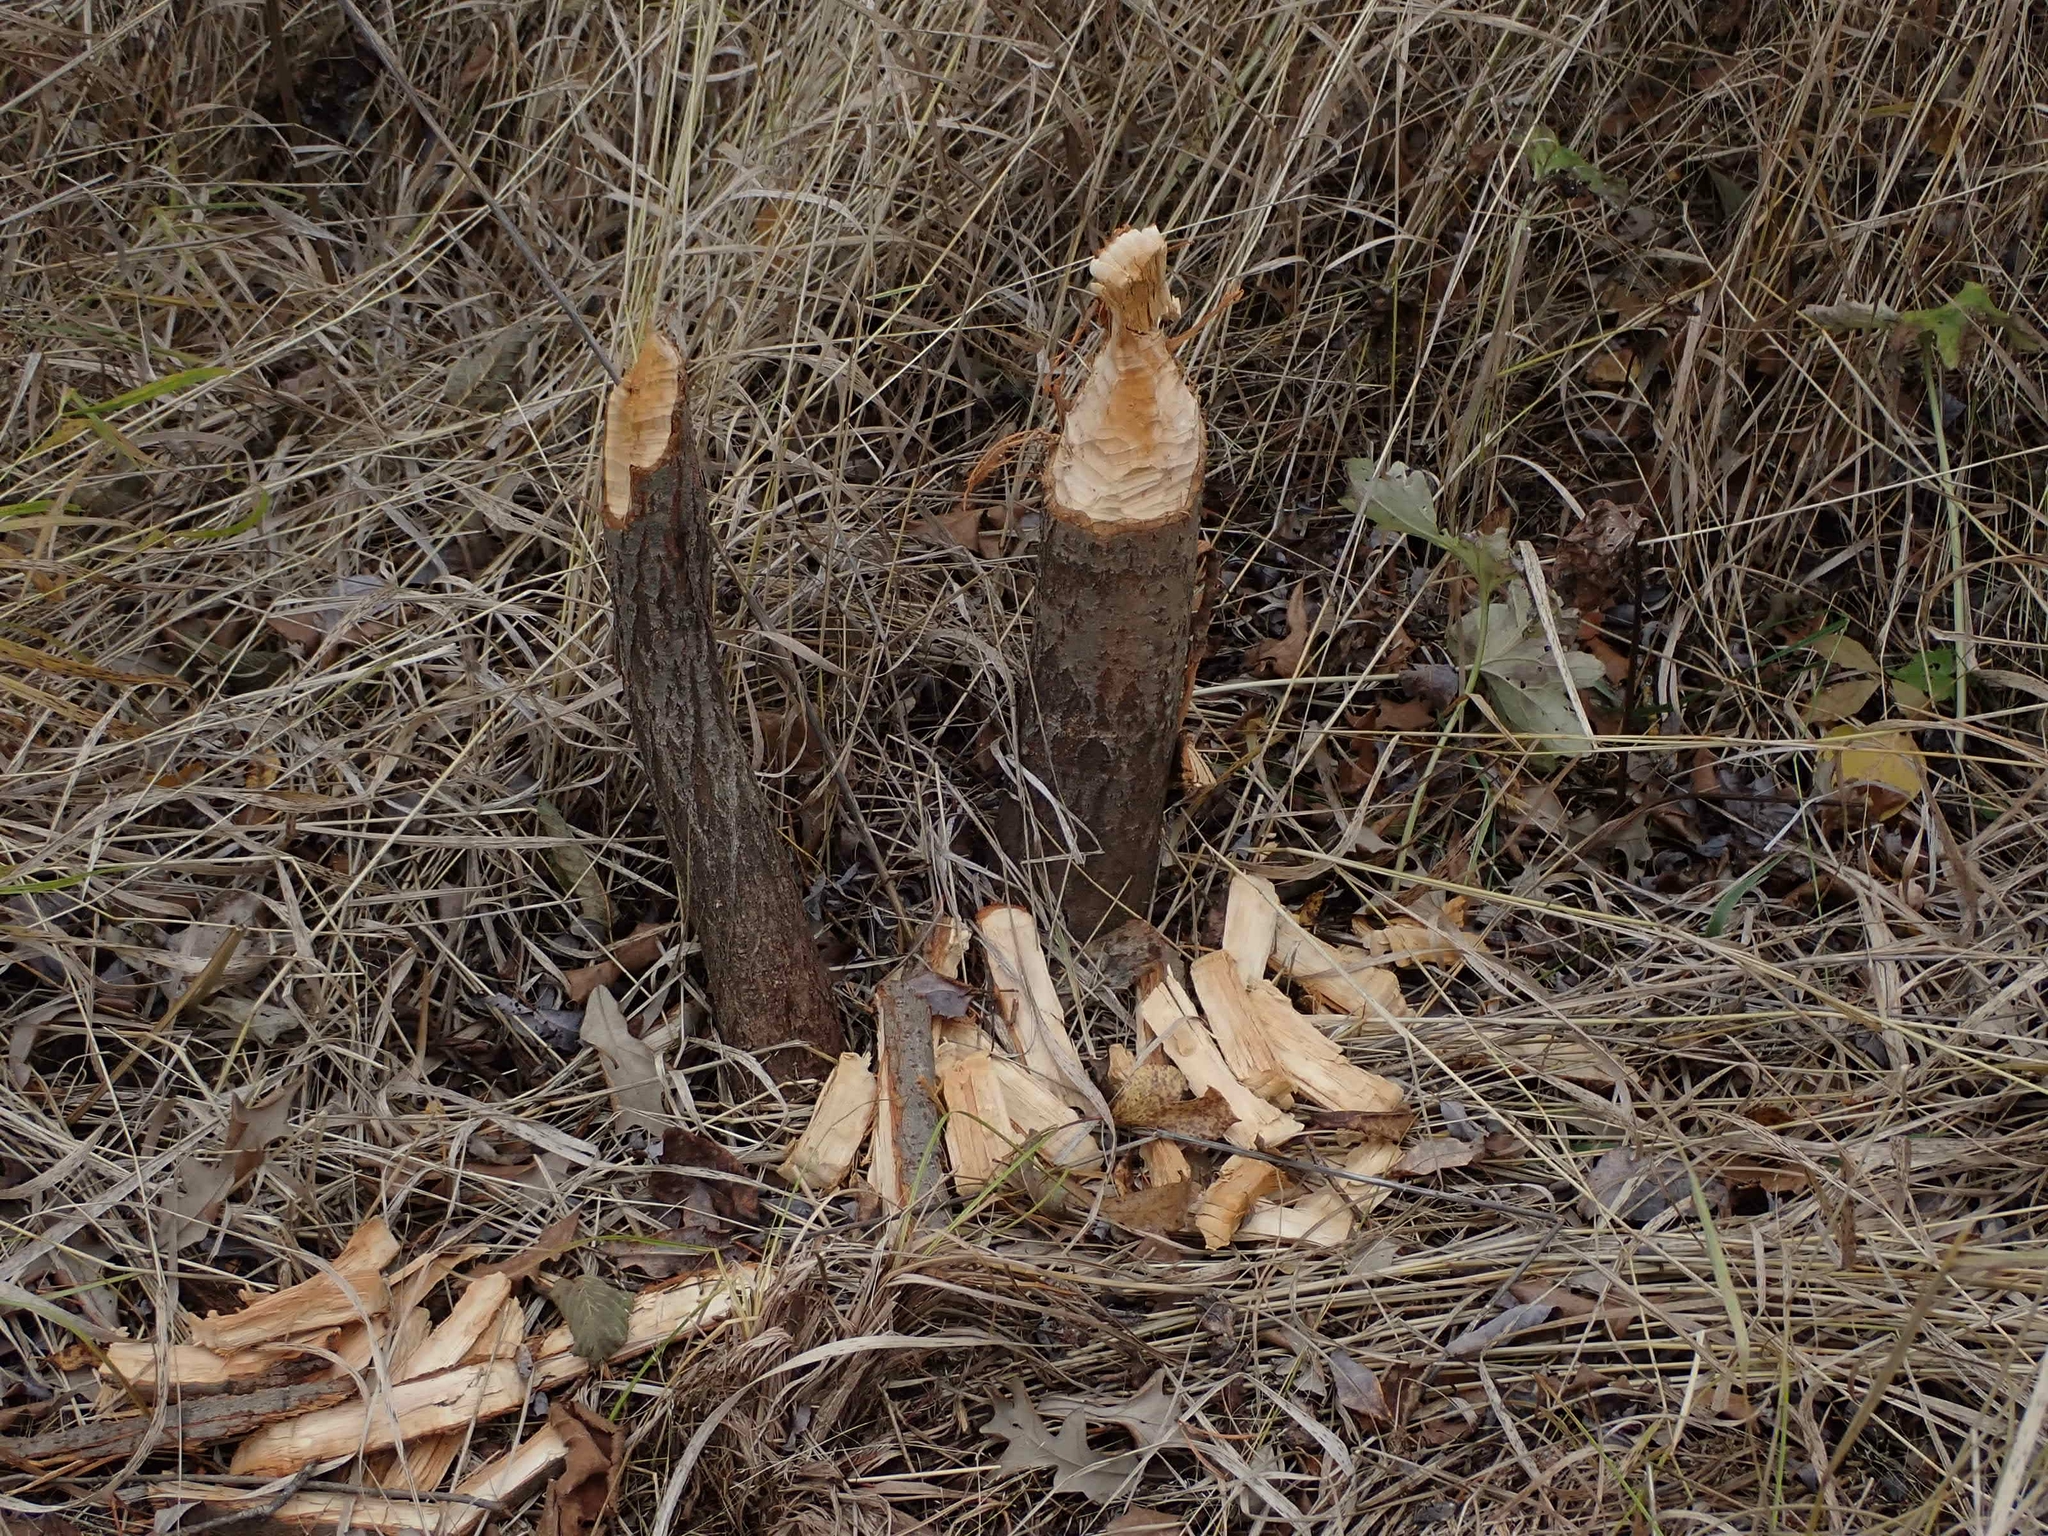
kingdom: Animalia
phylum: Chordata
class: Mammalia
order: Rodentia
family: Castoridae
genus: Castor
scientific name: Castor canadensis
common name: American beaver
